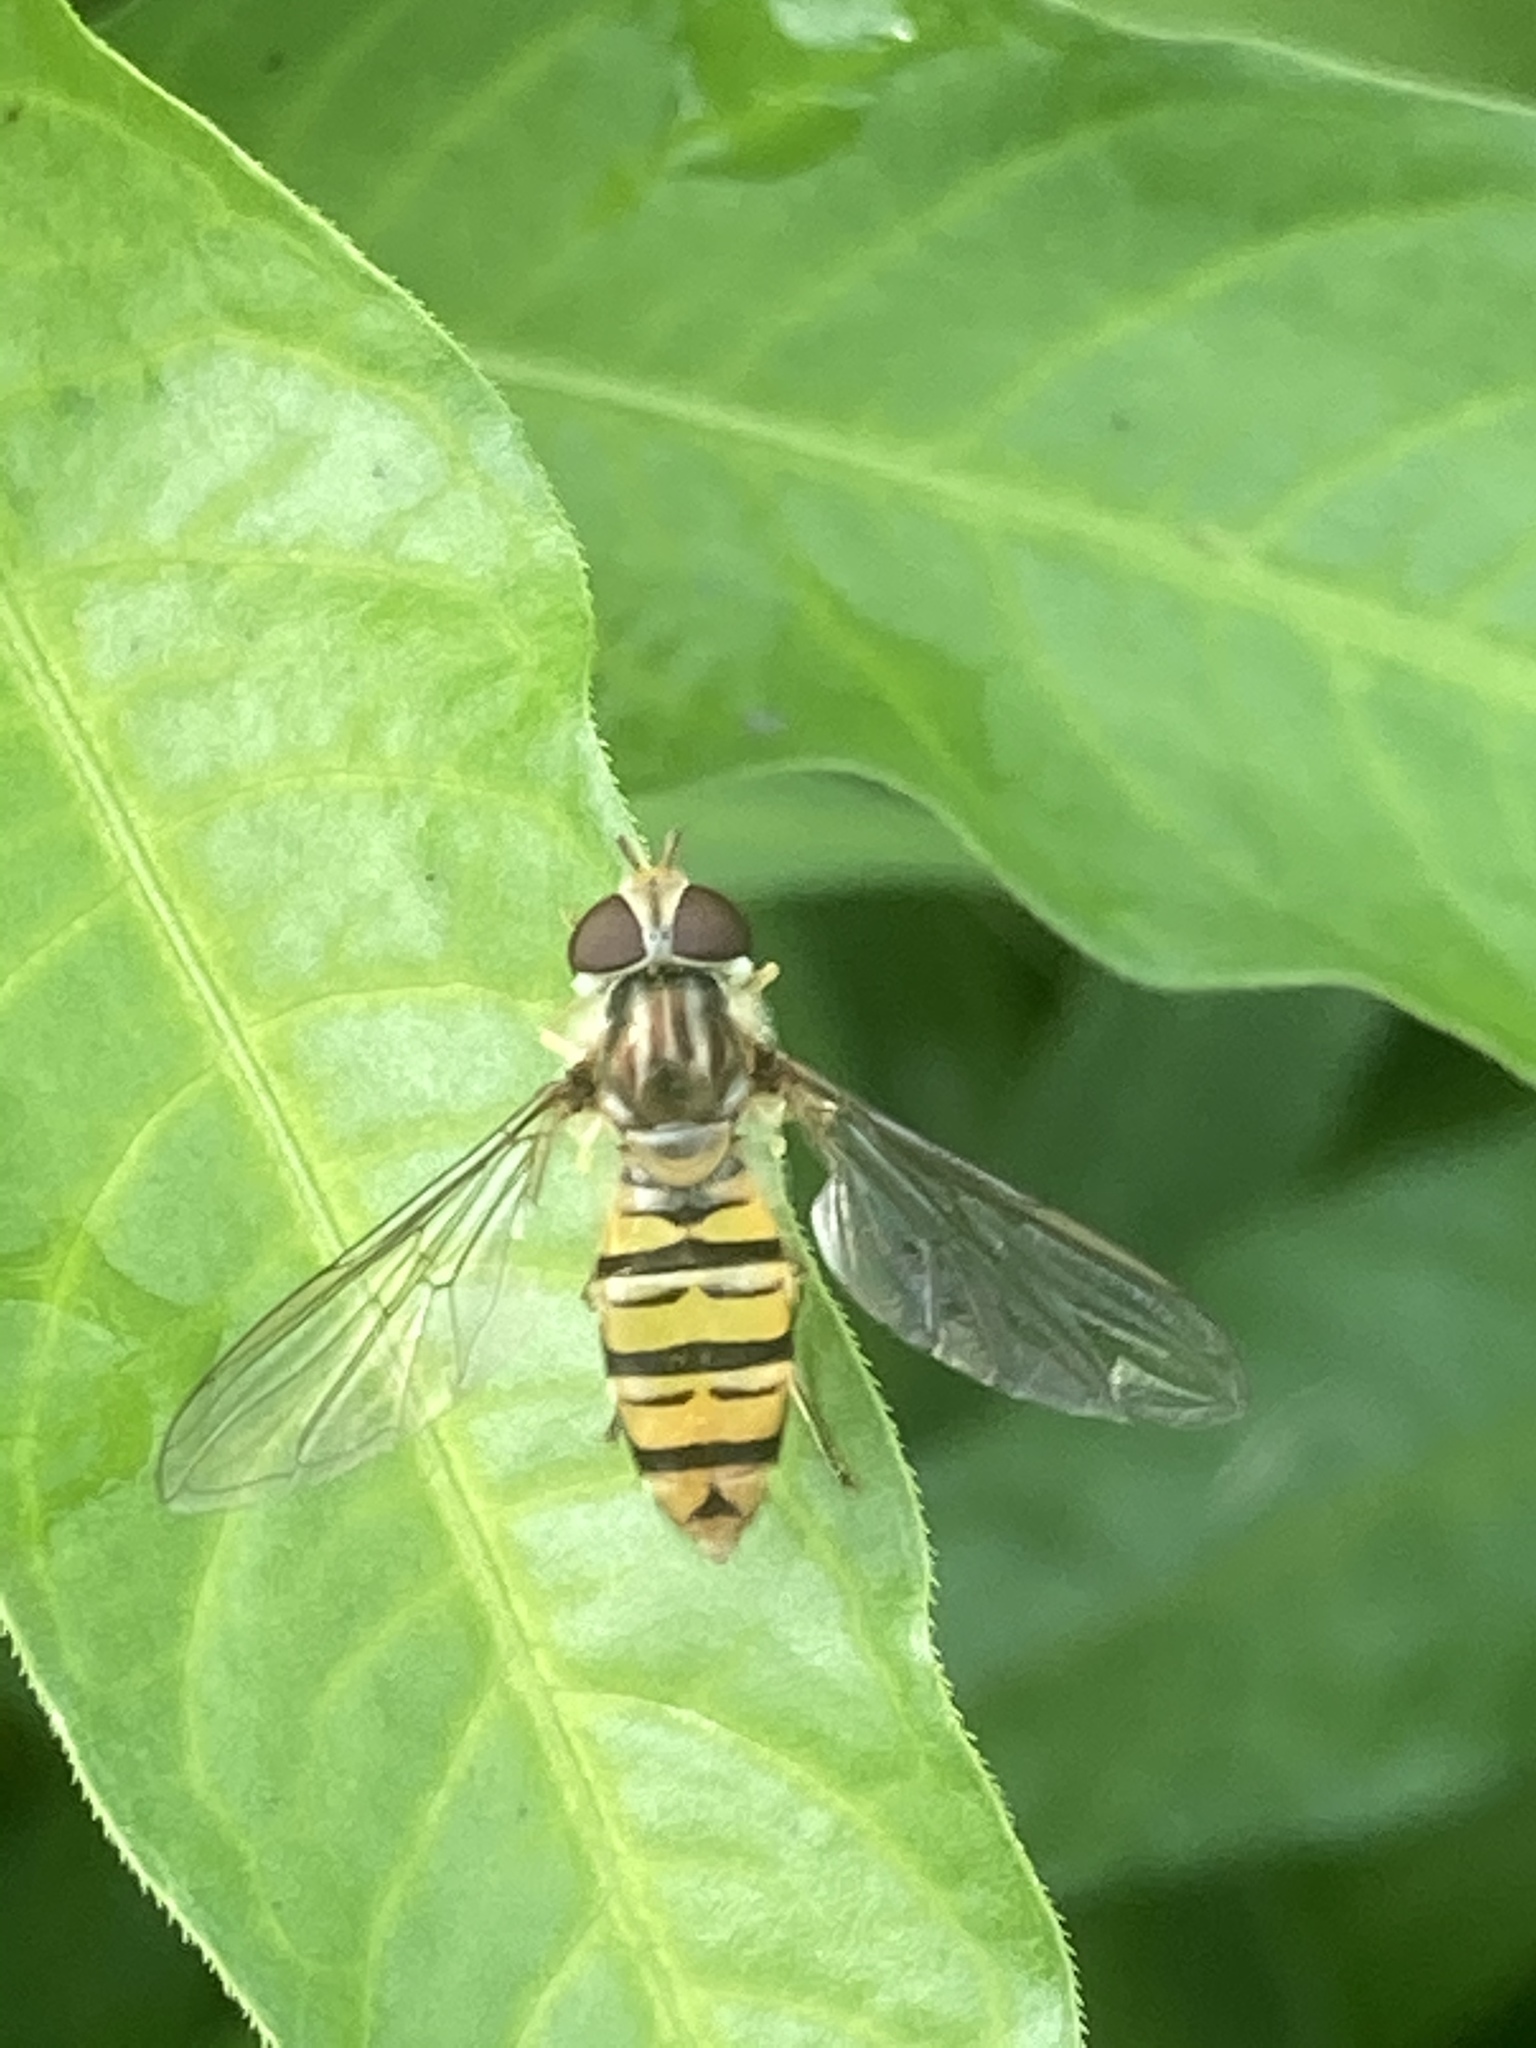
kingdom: Animalia
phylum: Arthropoda
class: Insecta
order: Diptera
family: Syrphidae
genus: Episyrphus
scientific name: Episyrphus balteatus
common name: Marmalade hoverfly
